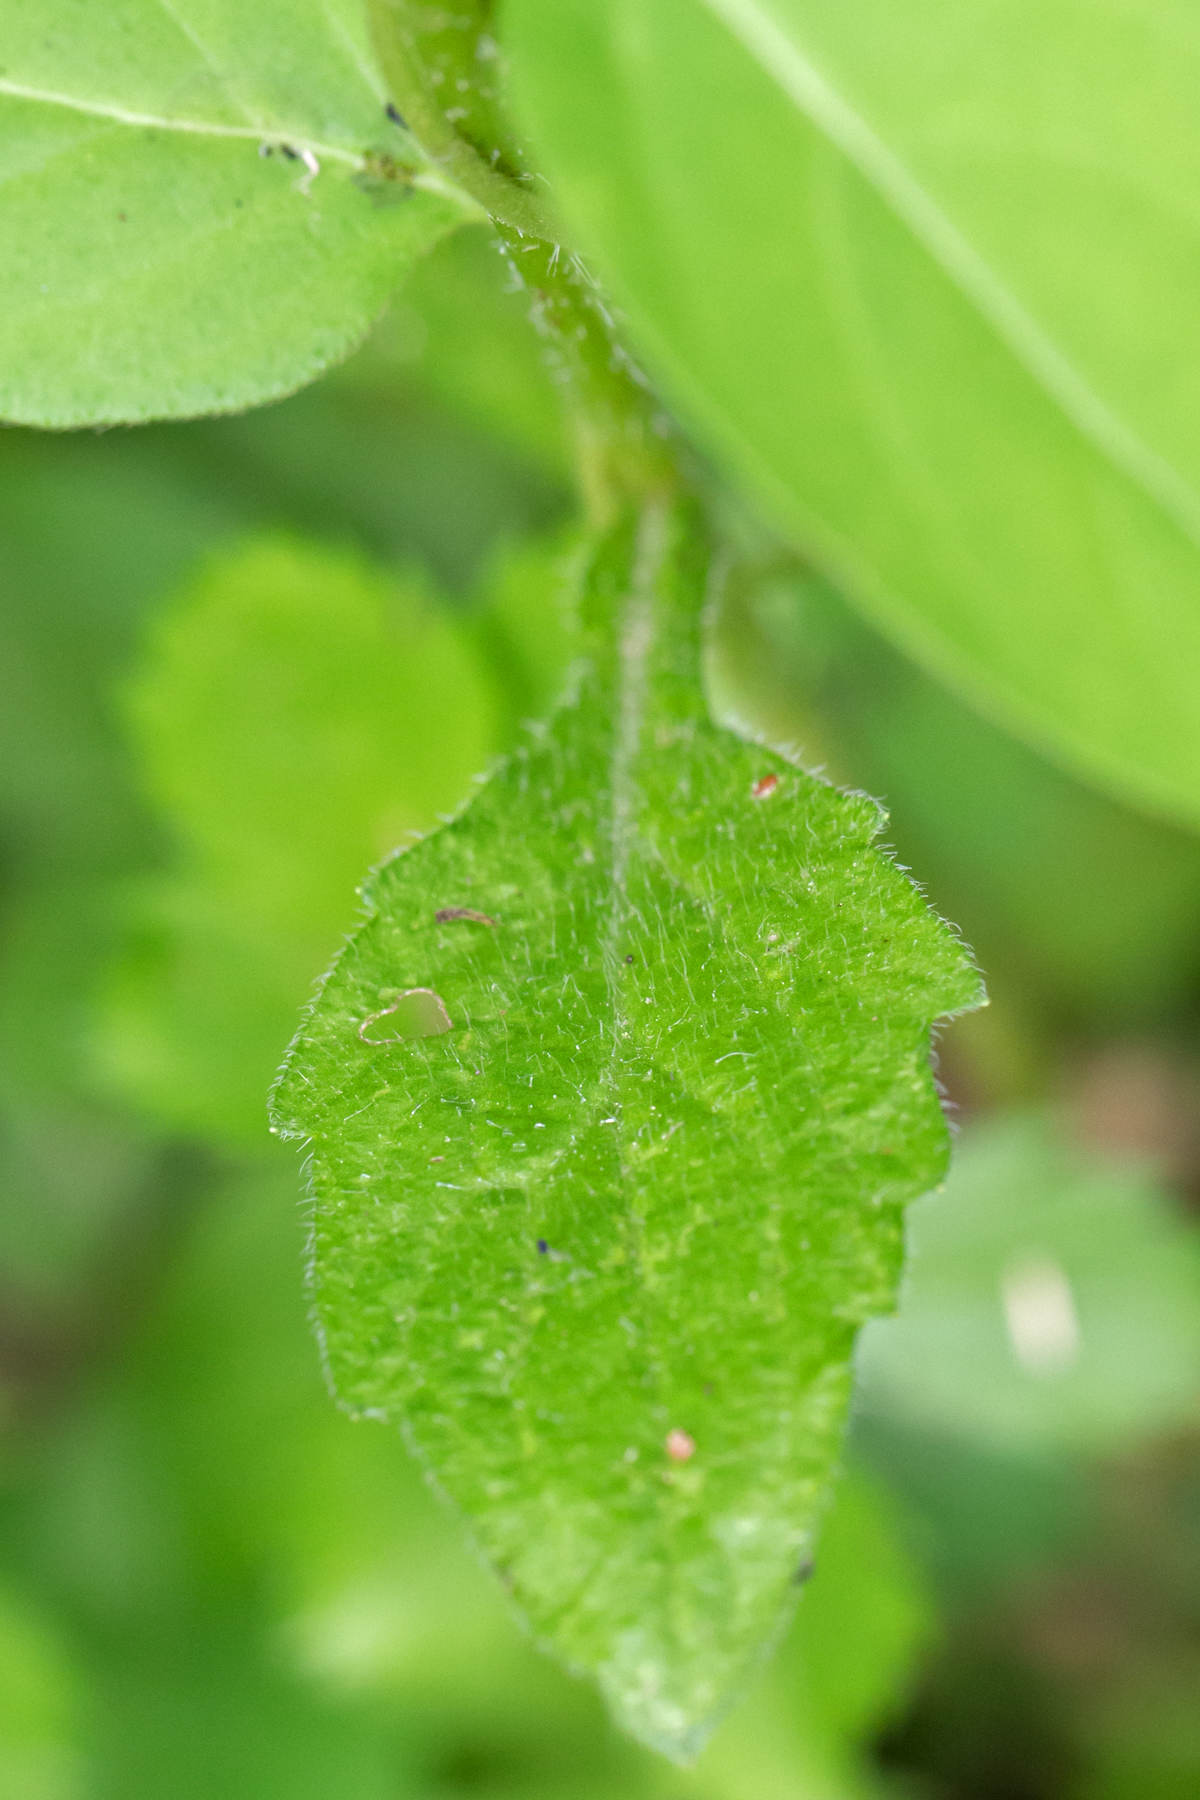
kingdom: Plantae
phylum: Tracheophyta
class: Magnoliopsida
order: Asterales
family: Asteraceae
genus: Erigeron
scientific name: Erigeron annuus
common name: Tall fleabane
